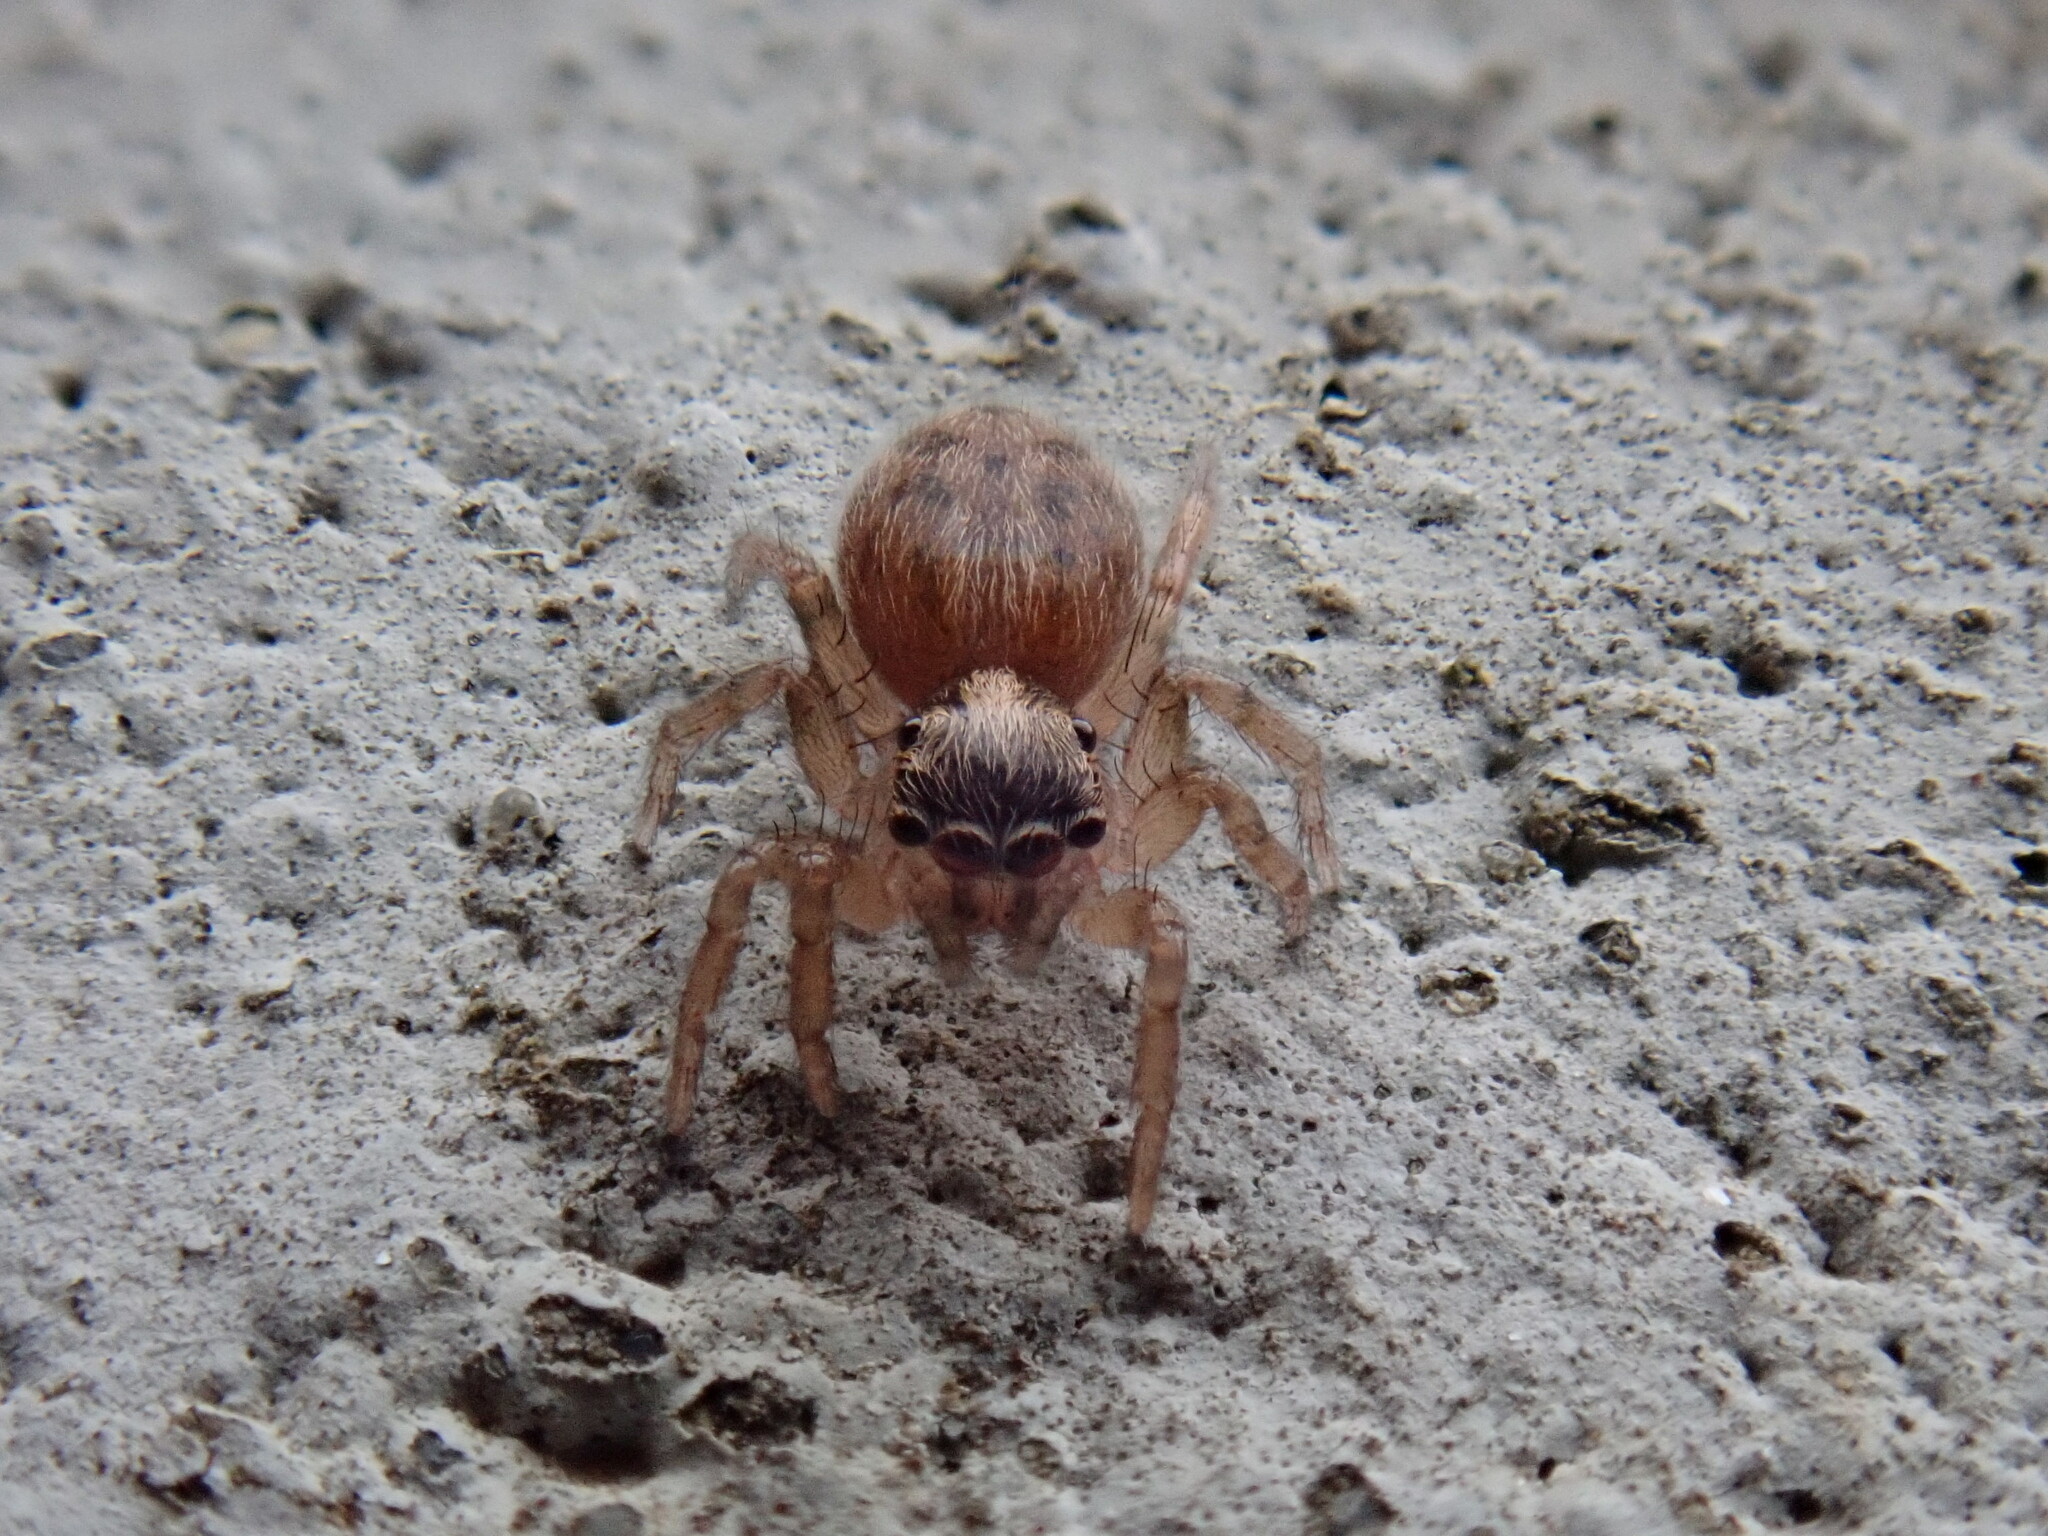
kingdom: Animalia
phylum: Arthropoda
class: Arachnida
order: Araneae
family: Salticidae
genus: Saitis
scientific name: Saitis tauricus
